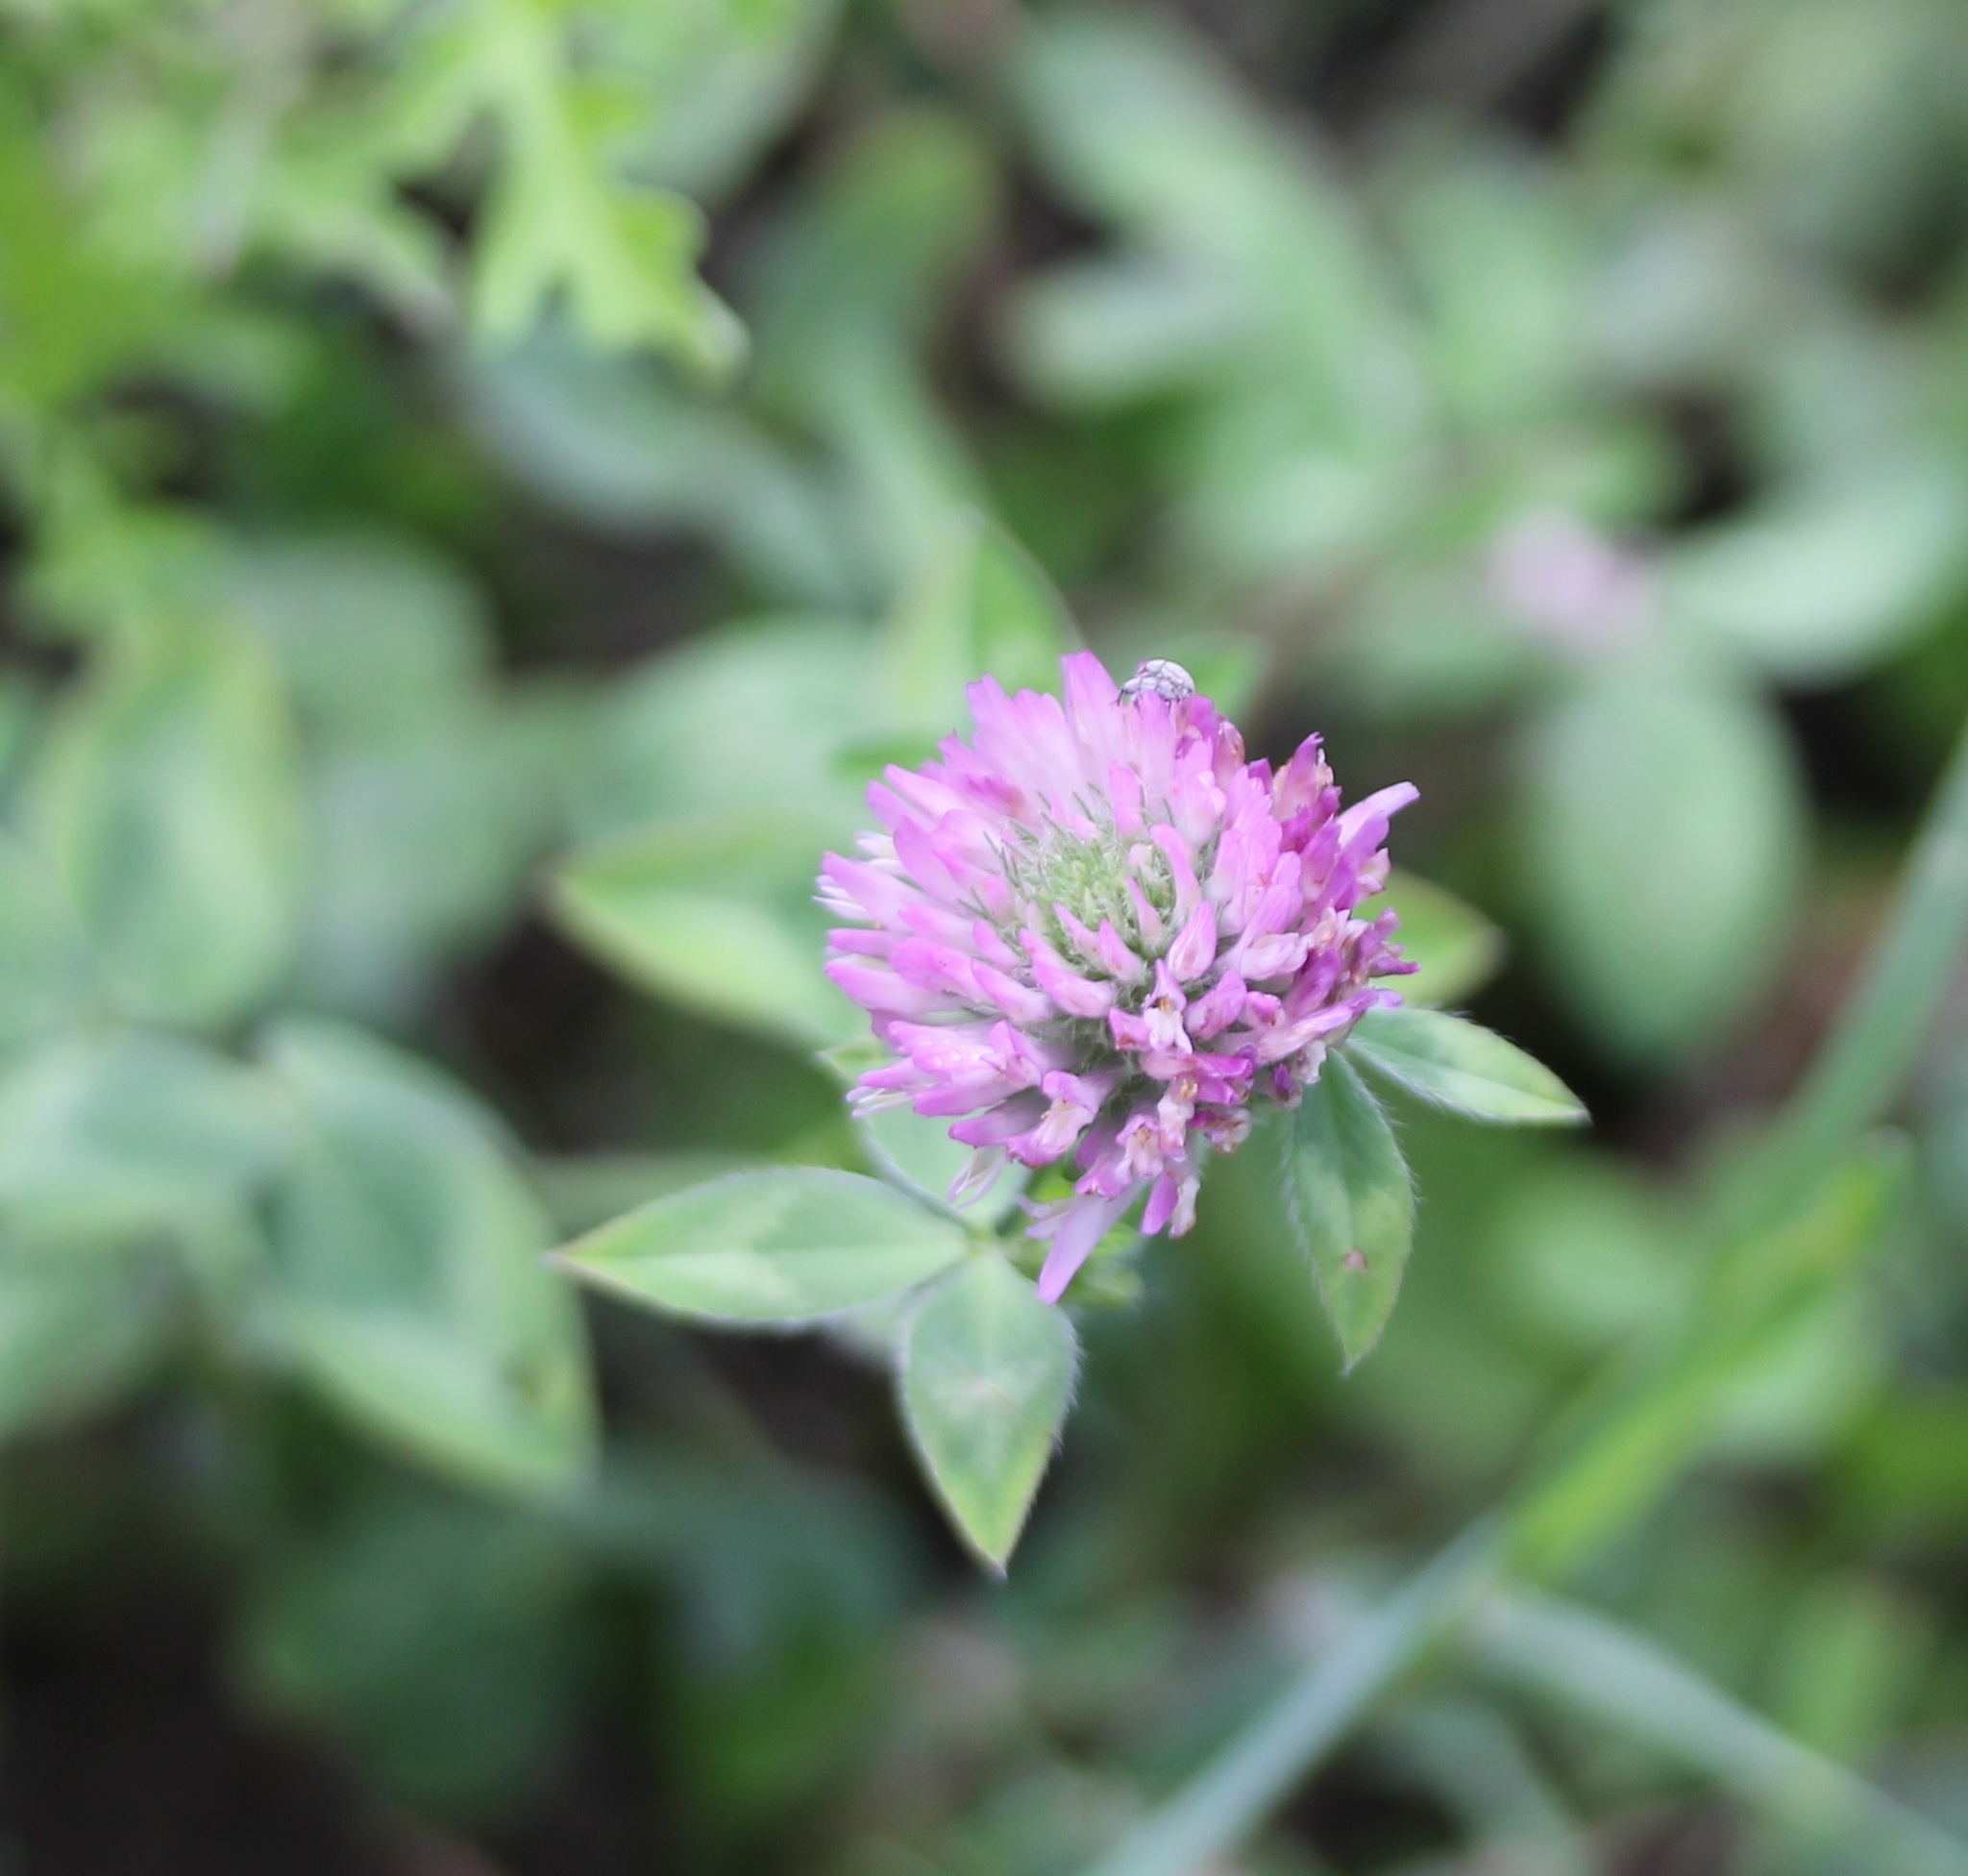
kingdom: Plantae
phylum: Tracheophyta
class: Magnoliopsida
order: Fabales
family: Fabaceae
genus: Trifolium
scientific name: Trifolium pratense
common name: Red clover
